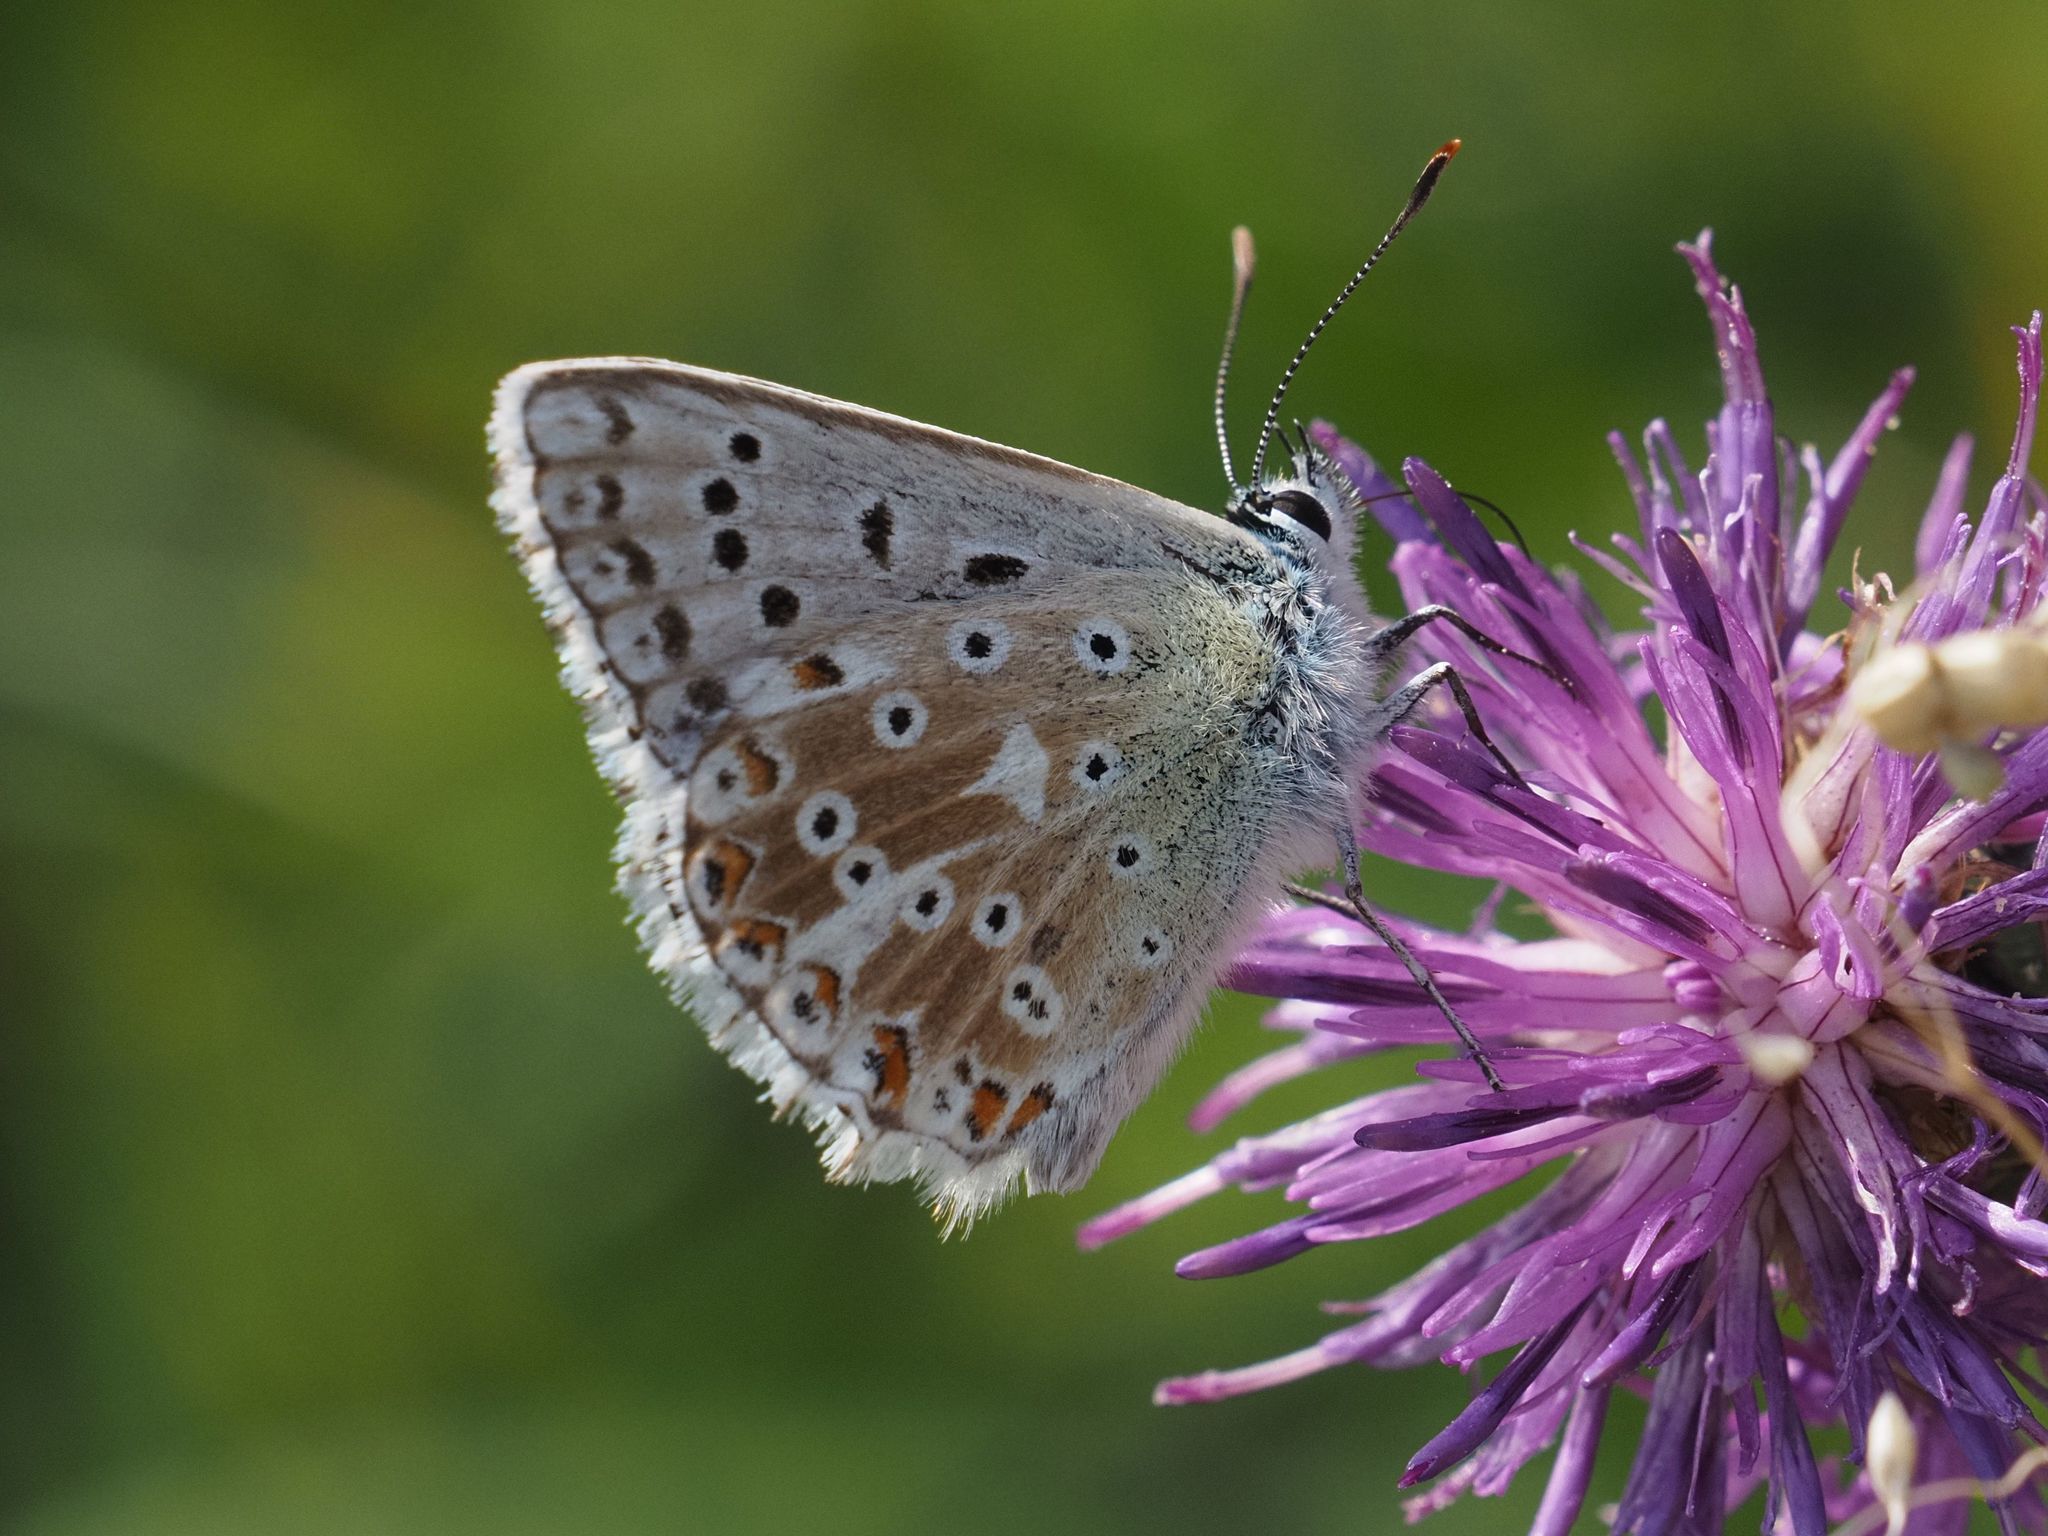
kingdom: Animalia
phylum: Arthropoda
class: Insecta
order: Lepidoptera
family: Lycaenidae
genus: Lysandra
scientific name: Lysandra coridon
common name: Chalkhill blue
